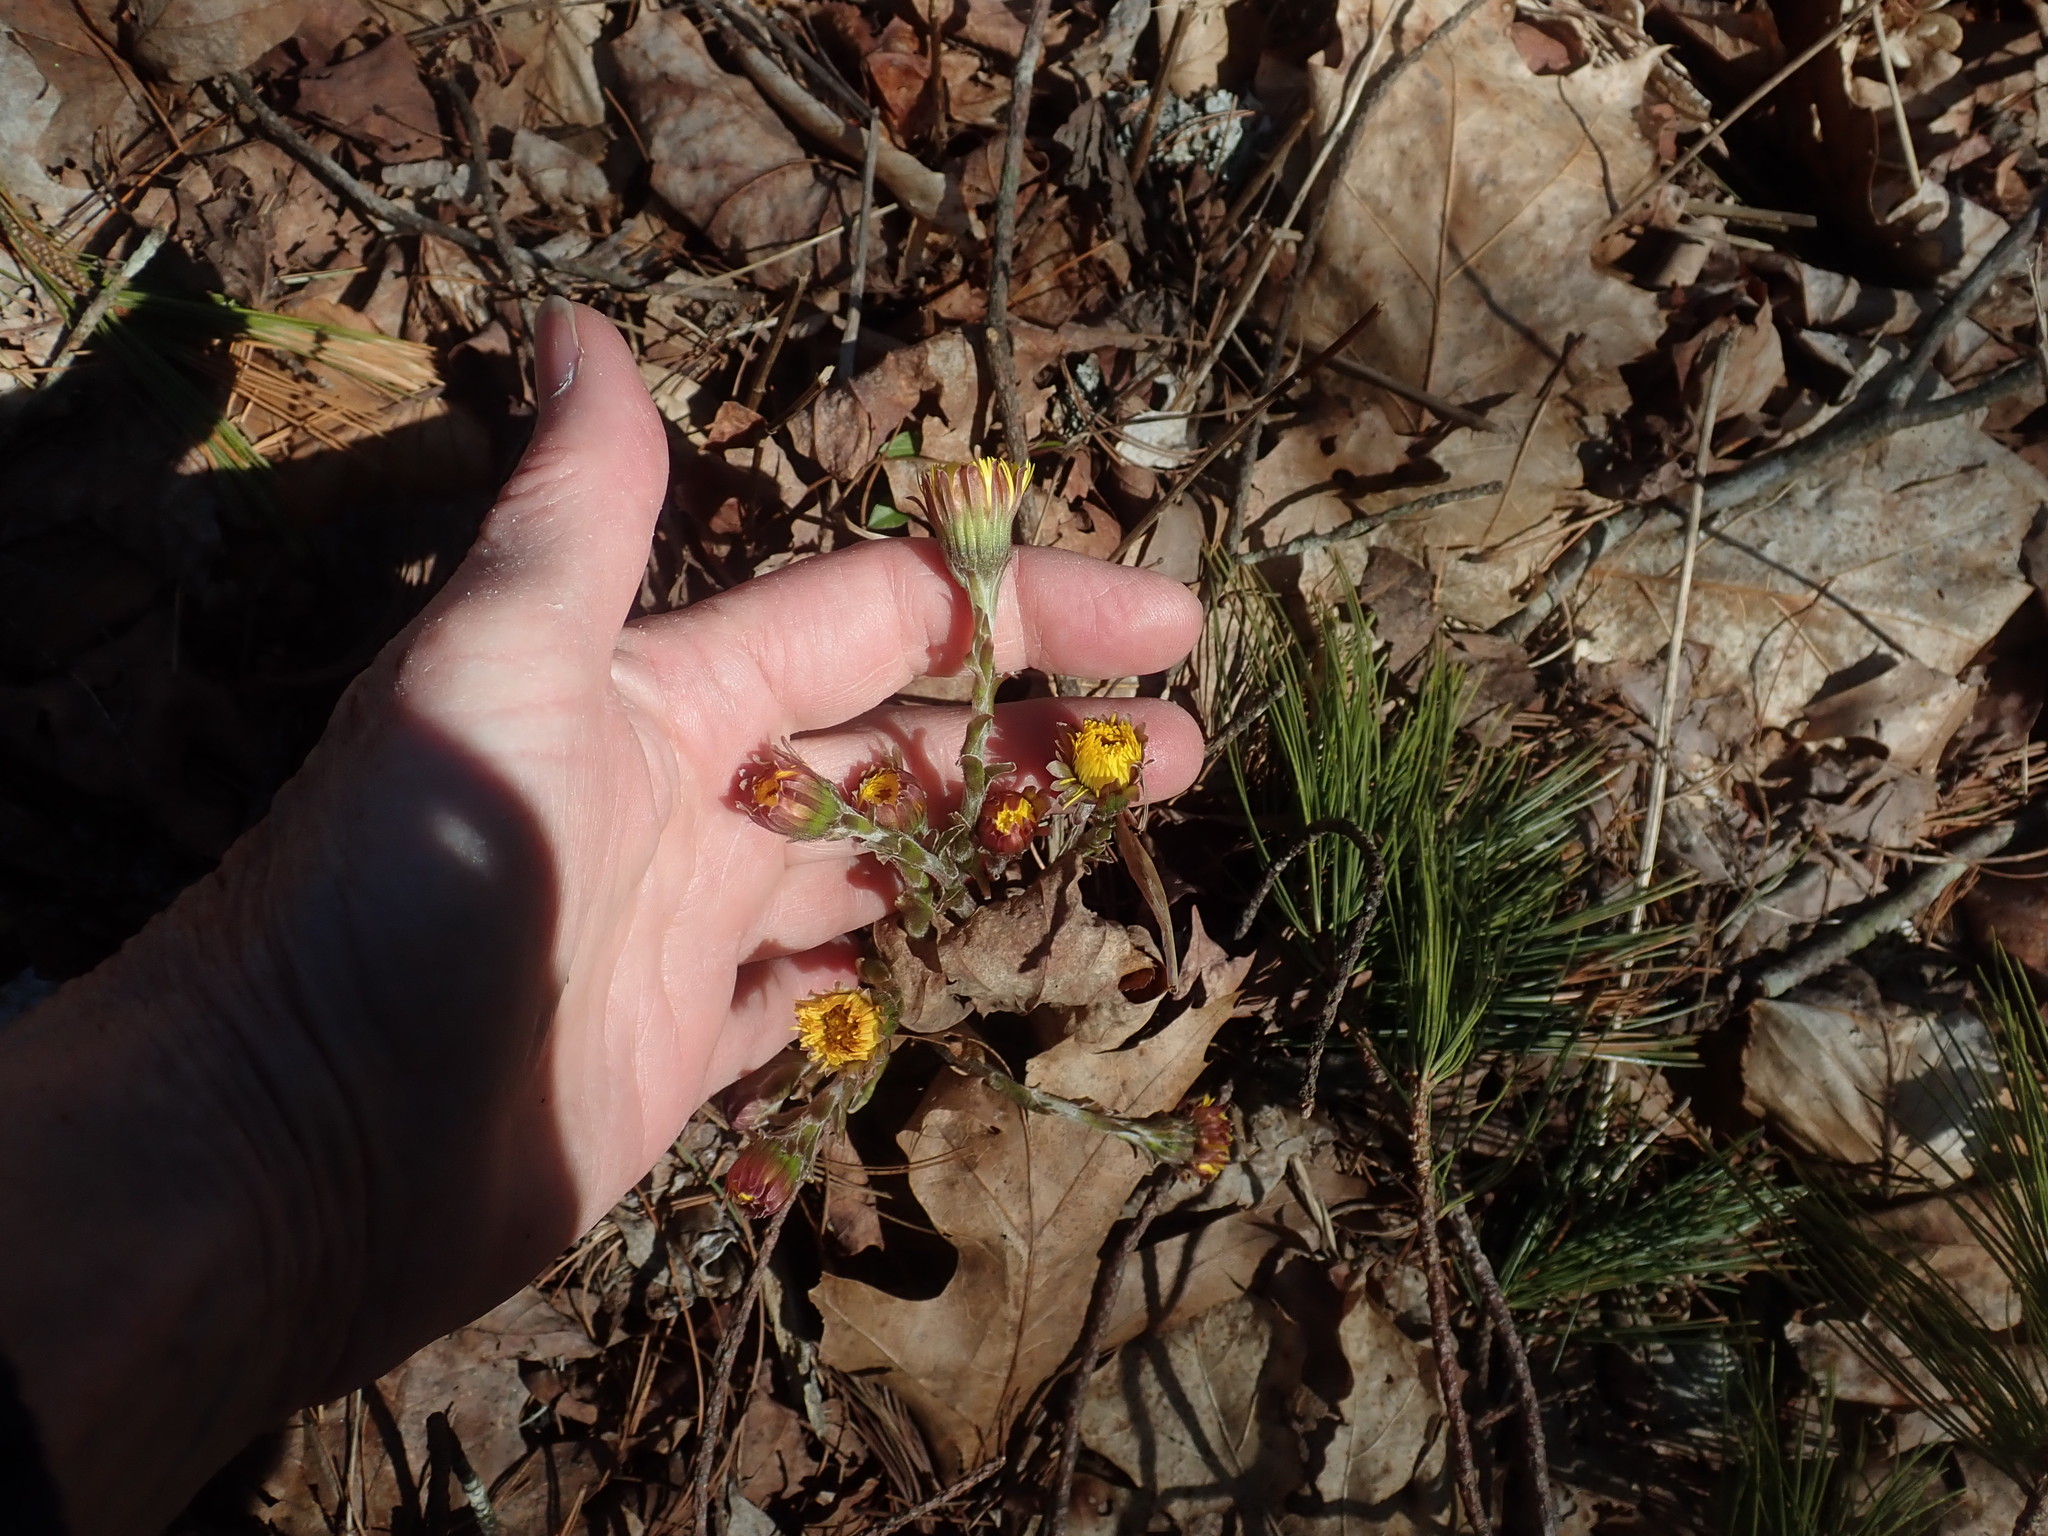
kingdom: Plantae
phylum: Tracheophyta
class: Magnoliopsida
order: Asterales
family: Asteraceae
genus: Tussilago
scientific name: Tussilago farfara
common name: Coltsfoot
